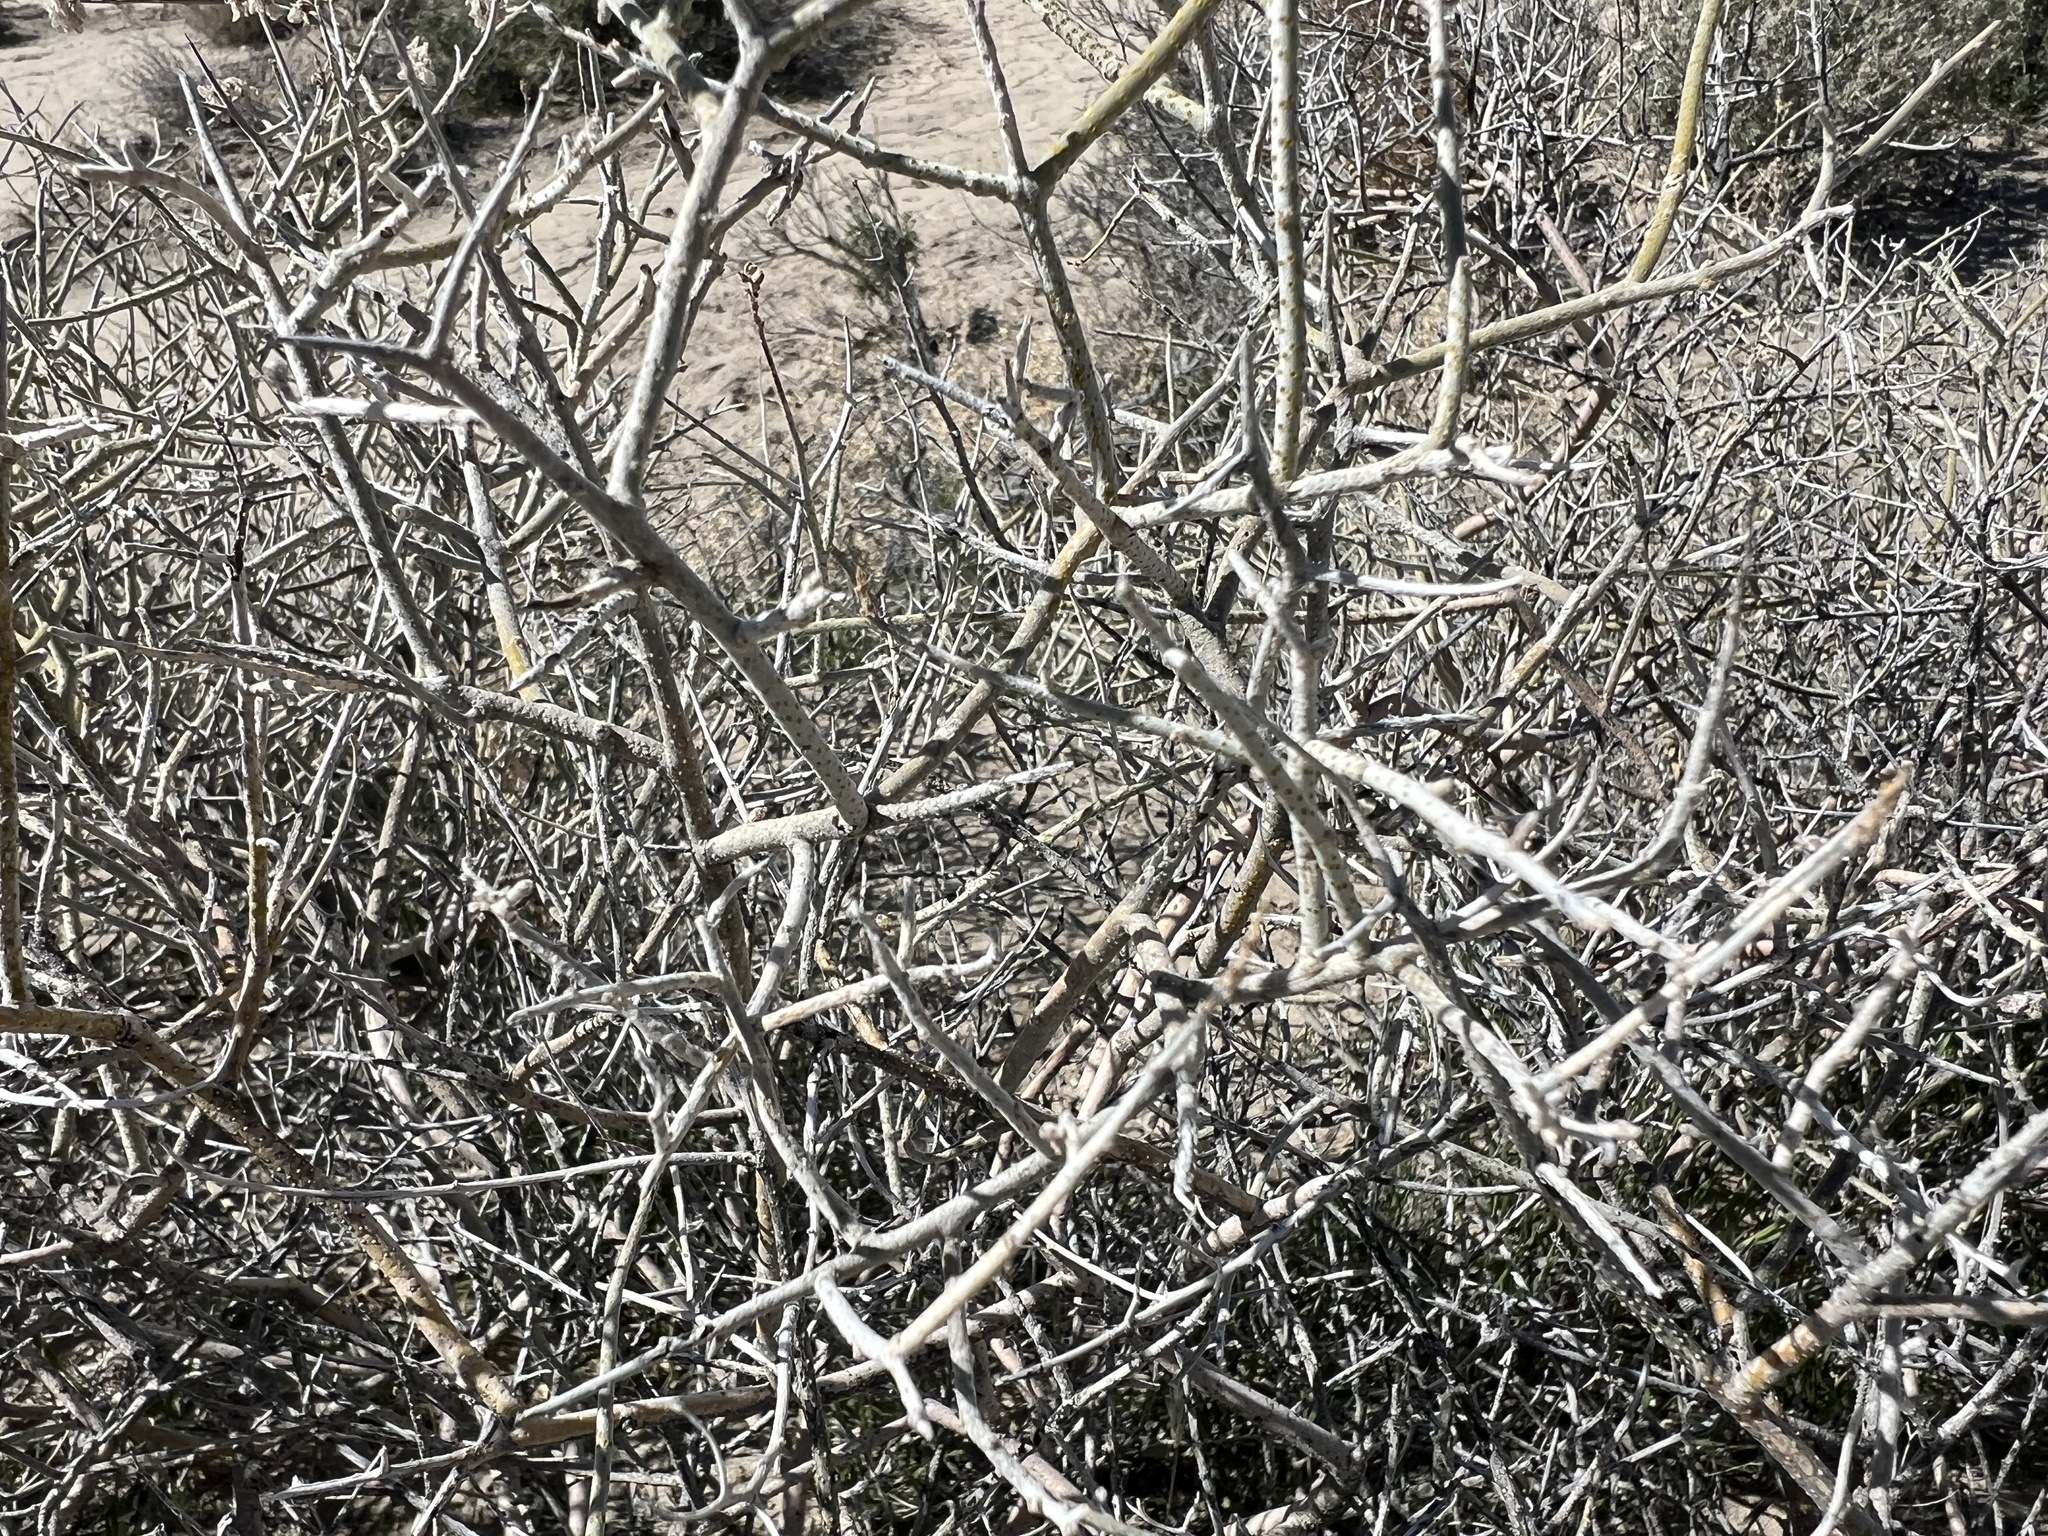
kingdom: Plantae
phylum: Tracheophyta
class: Magnoliopsida
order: Fabales
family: Fabaceae
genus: Psorothamnus
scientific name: Psorothamnus polydenius
